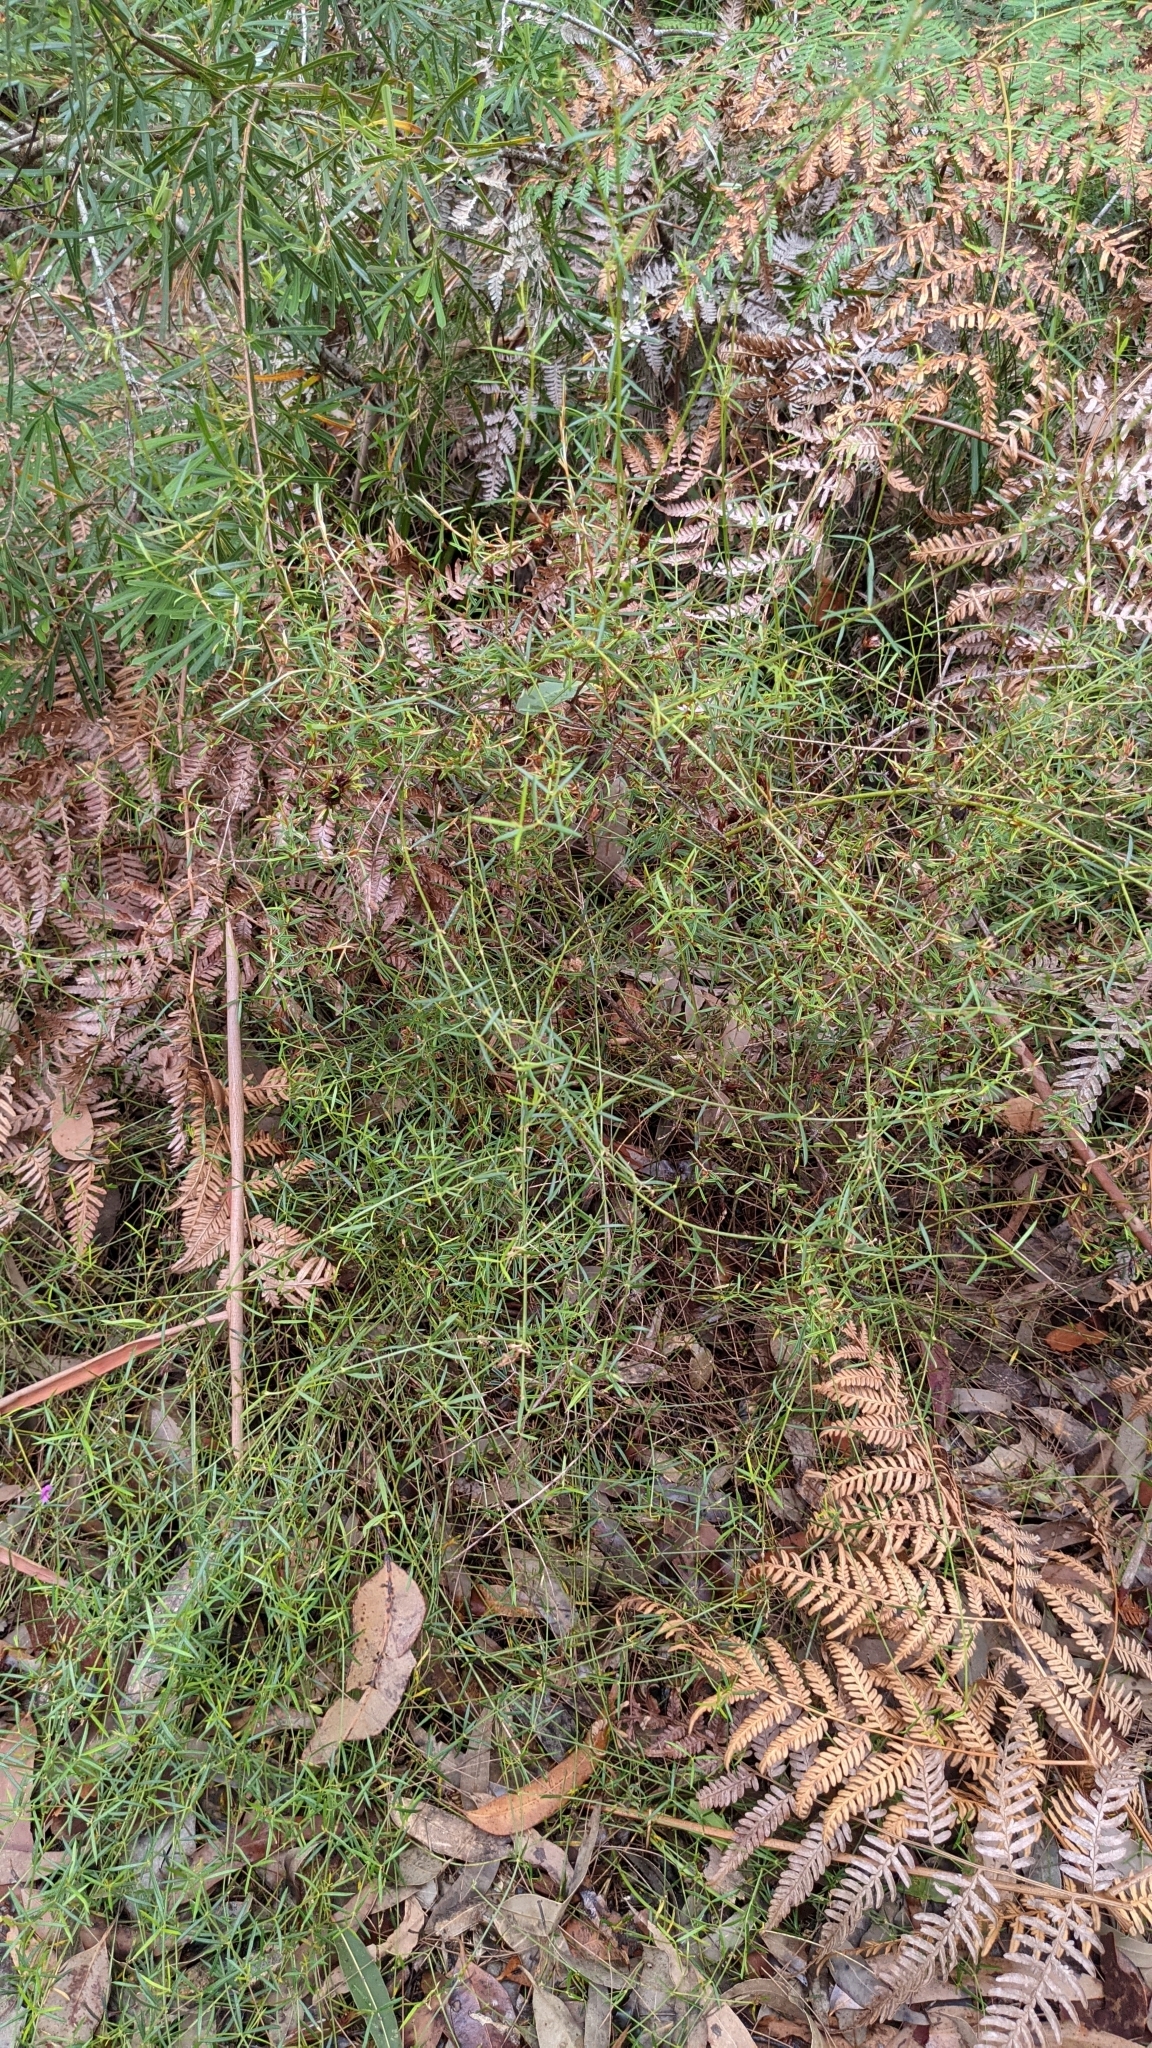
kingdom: Plantae
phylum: Tracheophyta
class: Magnoliopsida
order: Fabales
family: Fabaceae
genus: Mirbelia
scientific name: Mirbelia rubiifolia
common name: Heathy mirbelia
